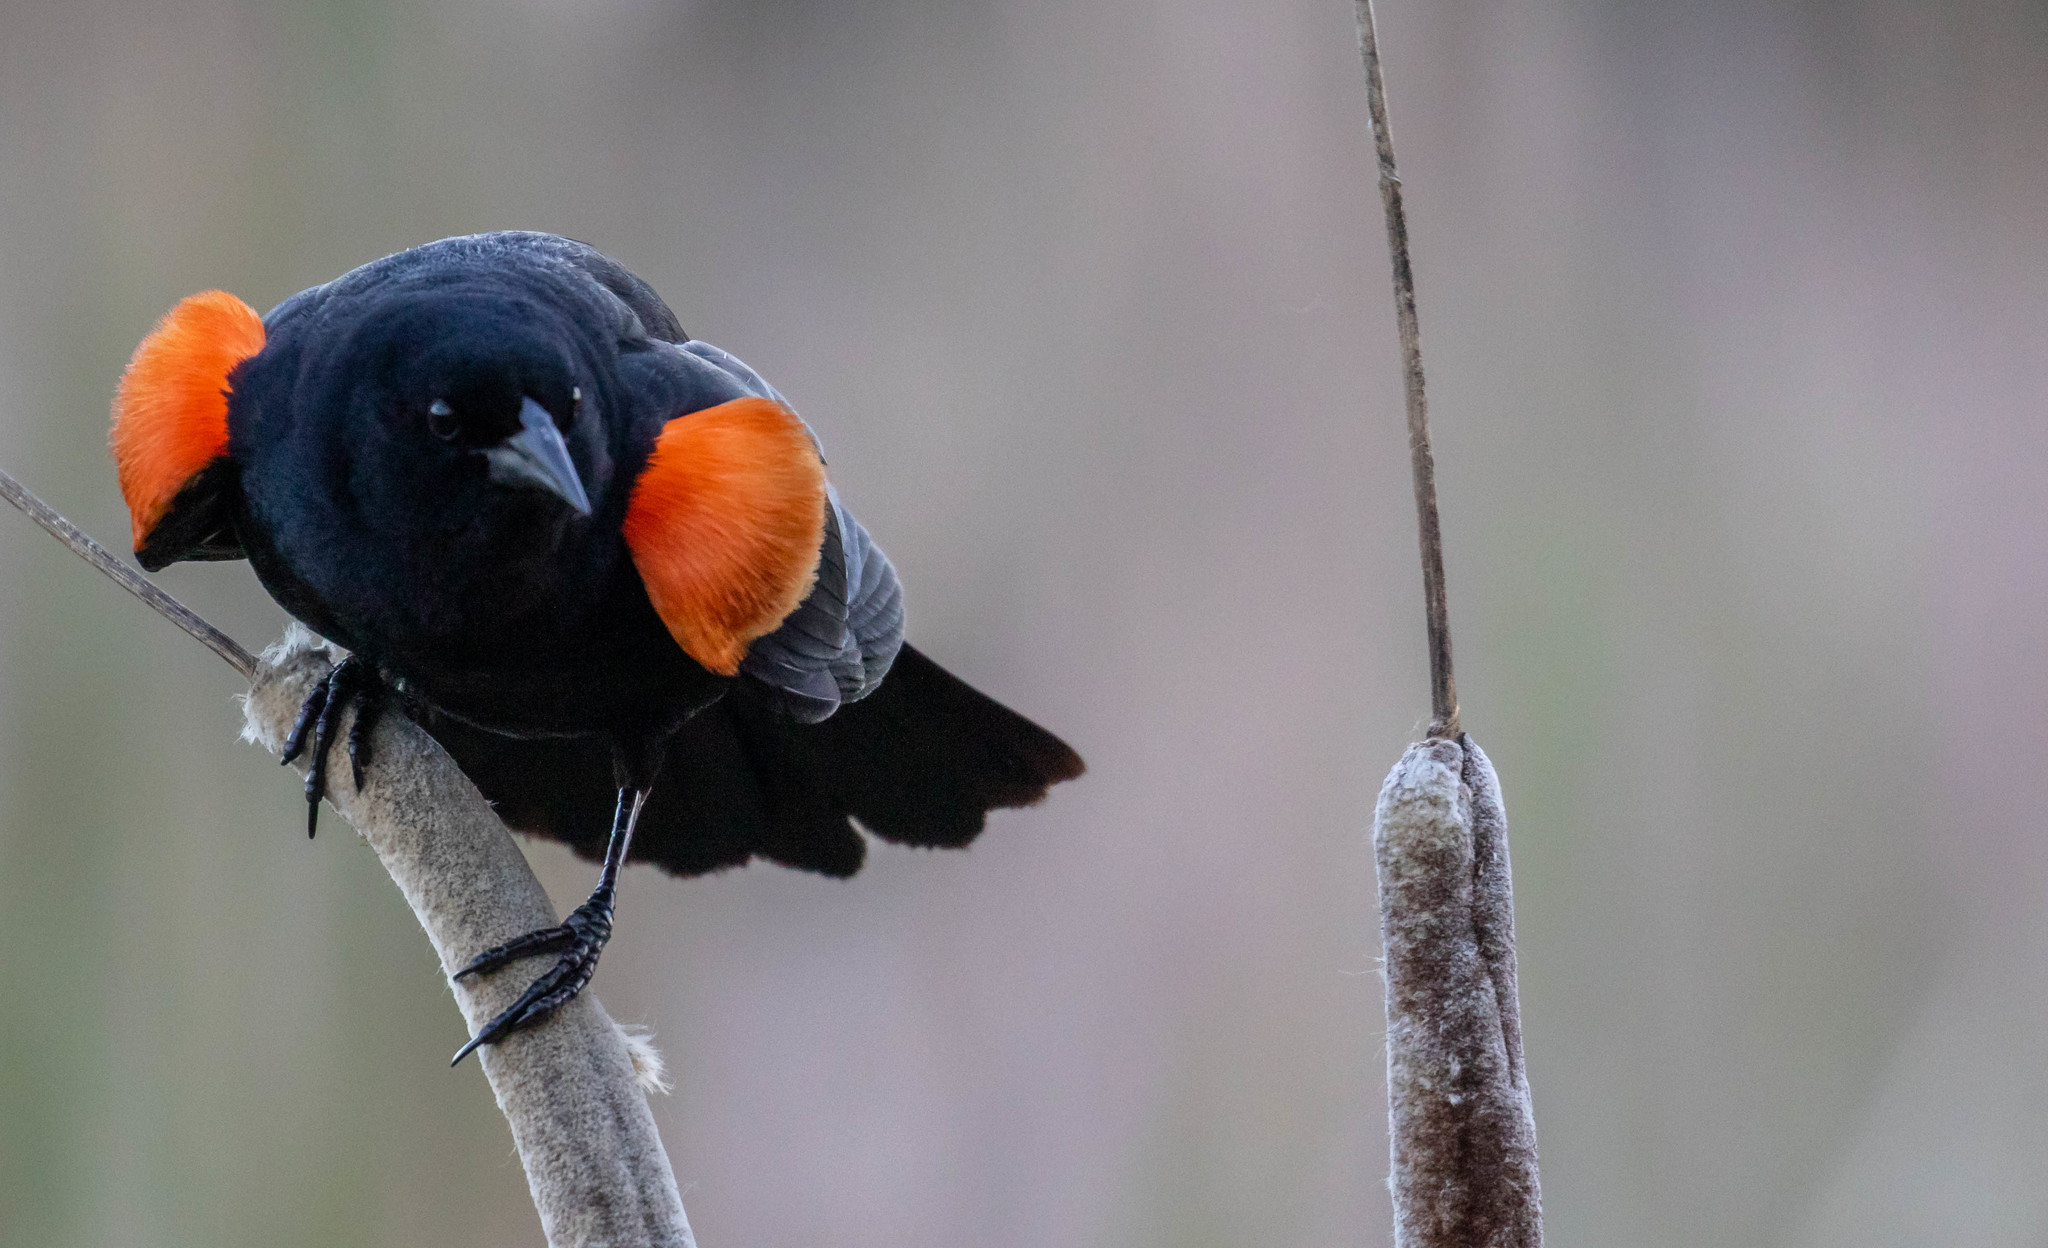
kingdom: Animalia
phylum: Chordata
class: Aves
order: Passeriformes
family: Icteridae
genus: Agelaius
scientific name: Agelaius phoeniceus
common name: Red-winged blackbird
